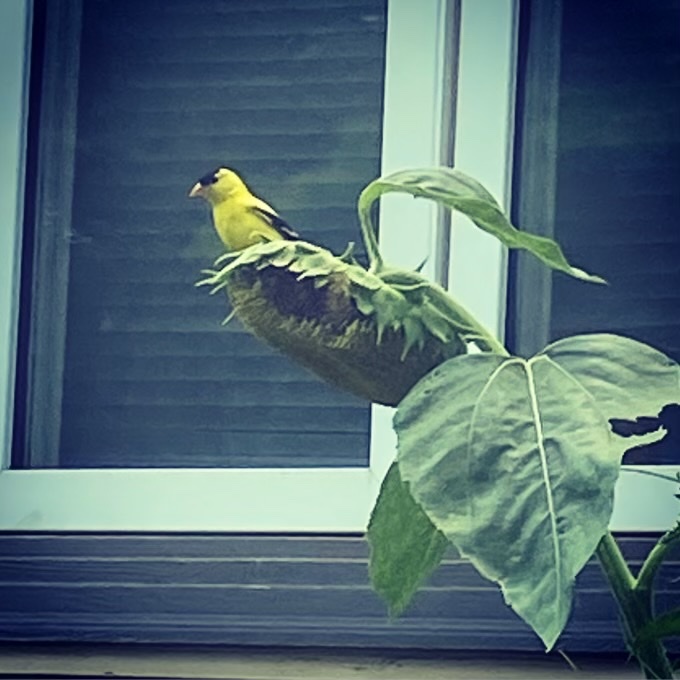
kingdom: Animalia
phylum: Chordata
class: Aves
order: Passeriformes
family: Fringillidae
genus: Spinus
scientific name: Spinus tristis
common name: American goldfinch
